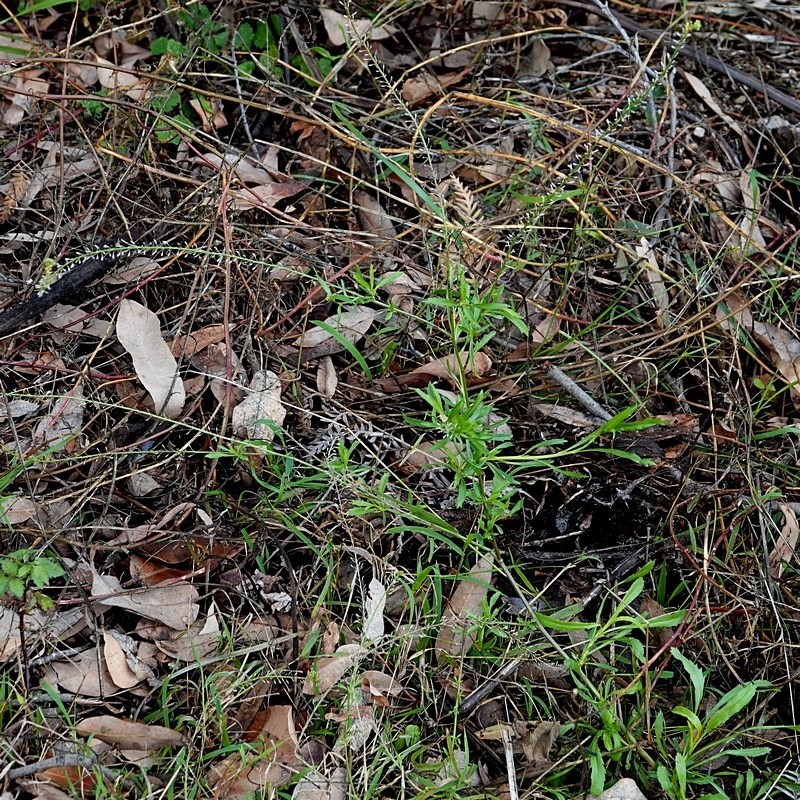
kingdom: Plantae
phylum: Tracheophyta
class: Magnoliopsida
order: Brassicales
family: Brassicaceae
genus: Lepidium
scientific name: Lepidium pseudotasmanicum
